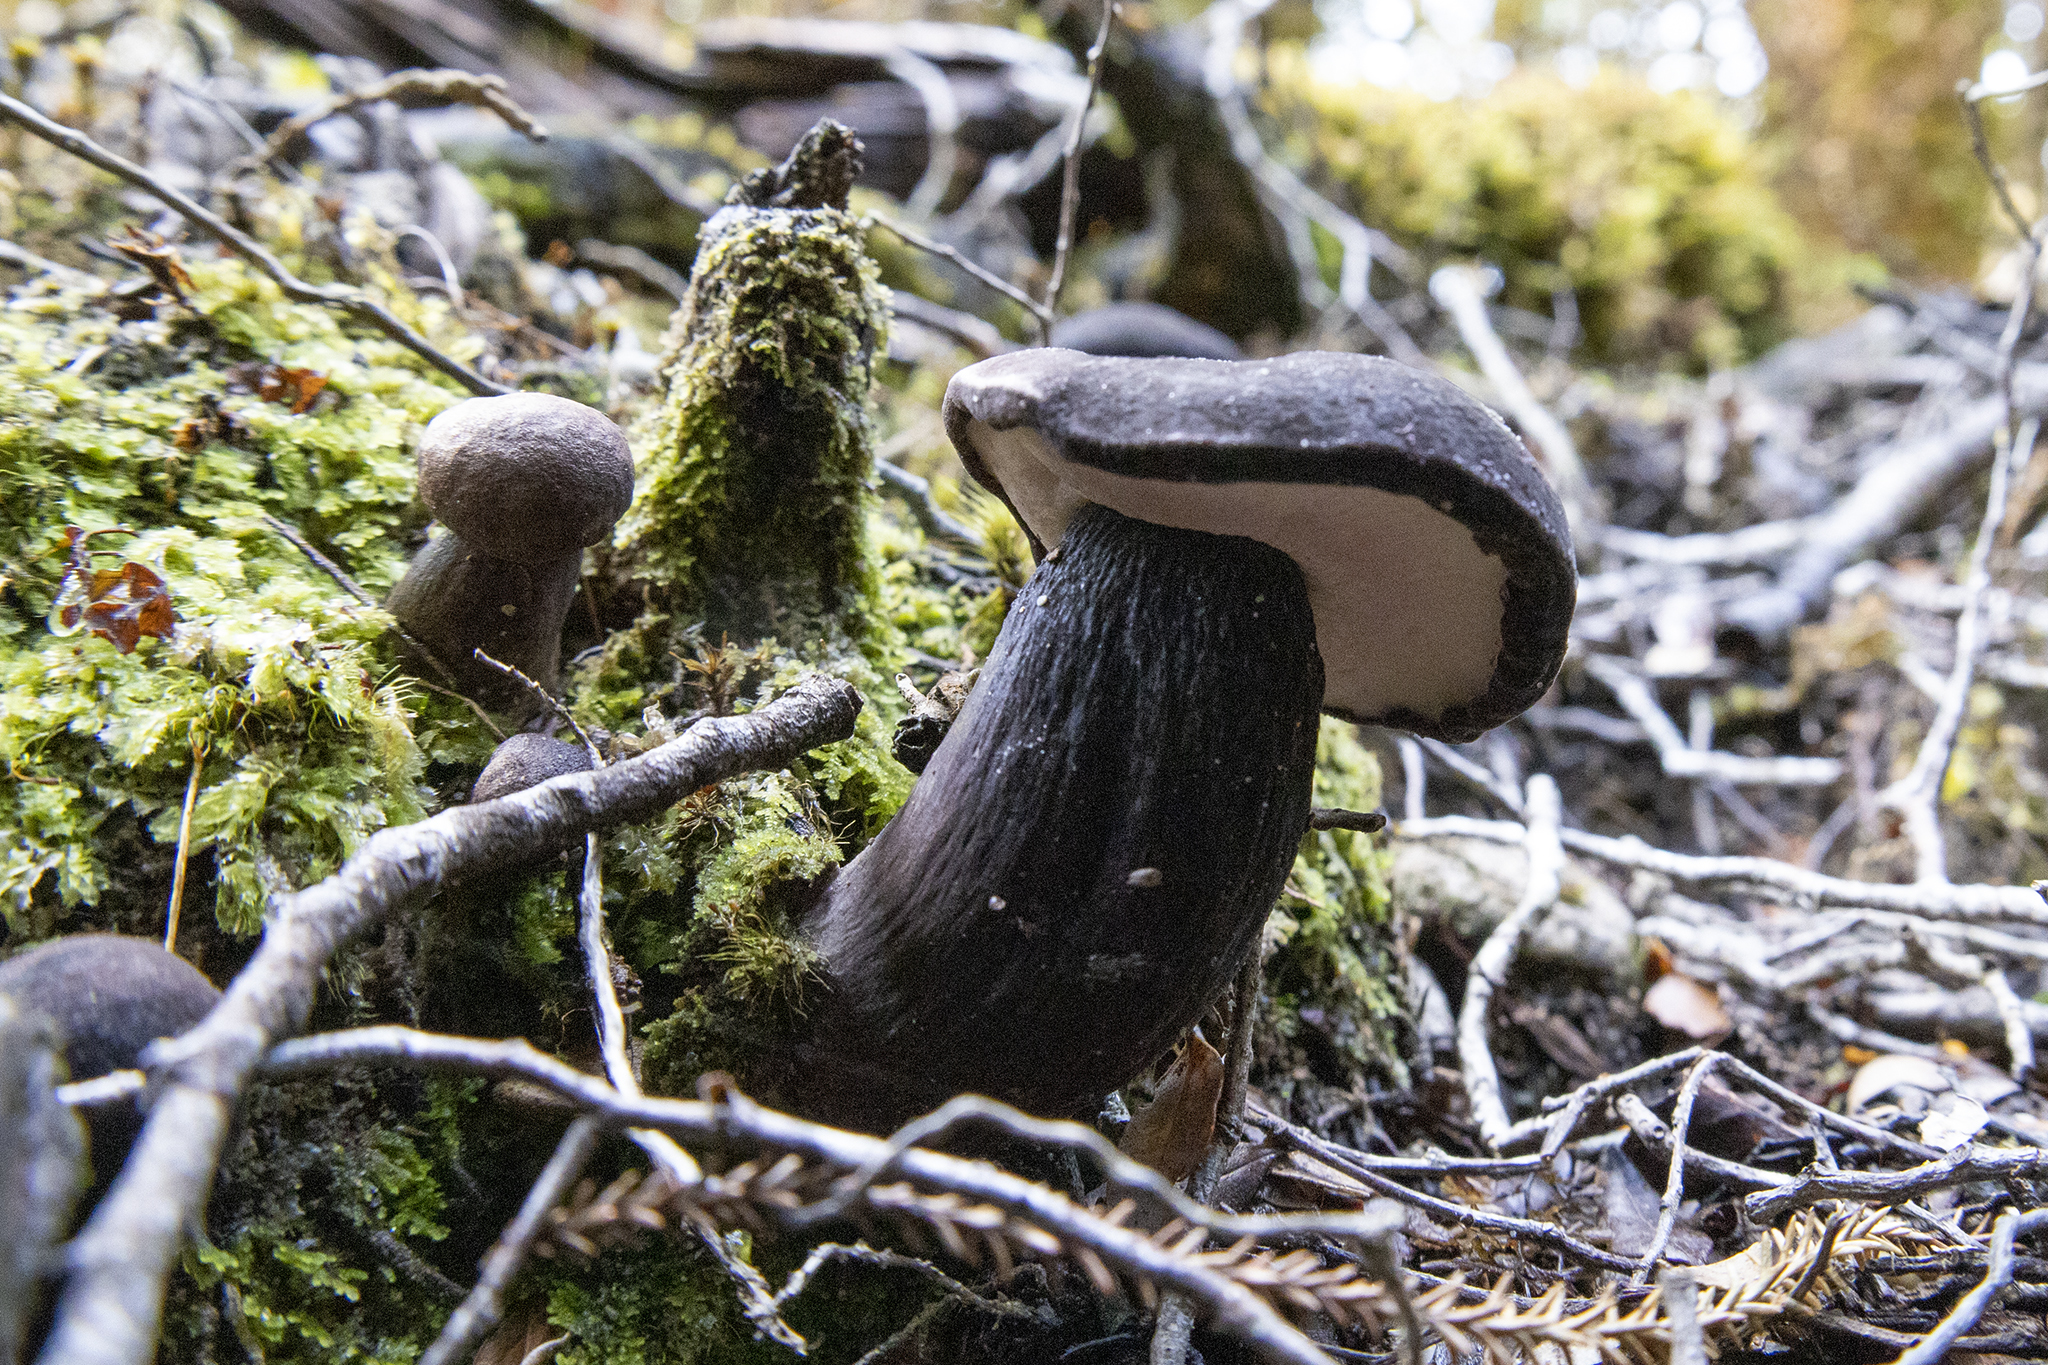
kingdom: Fungi
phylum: Basidiomycota
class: Agaricomycetes
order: Boletales
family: Boletaceae
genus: Porphyrellus
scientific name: Porphyrellus formosus
